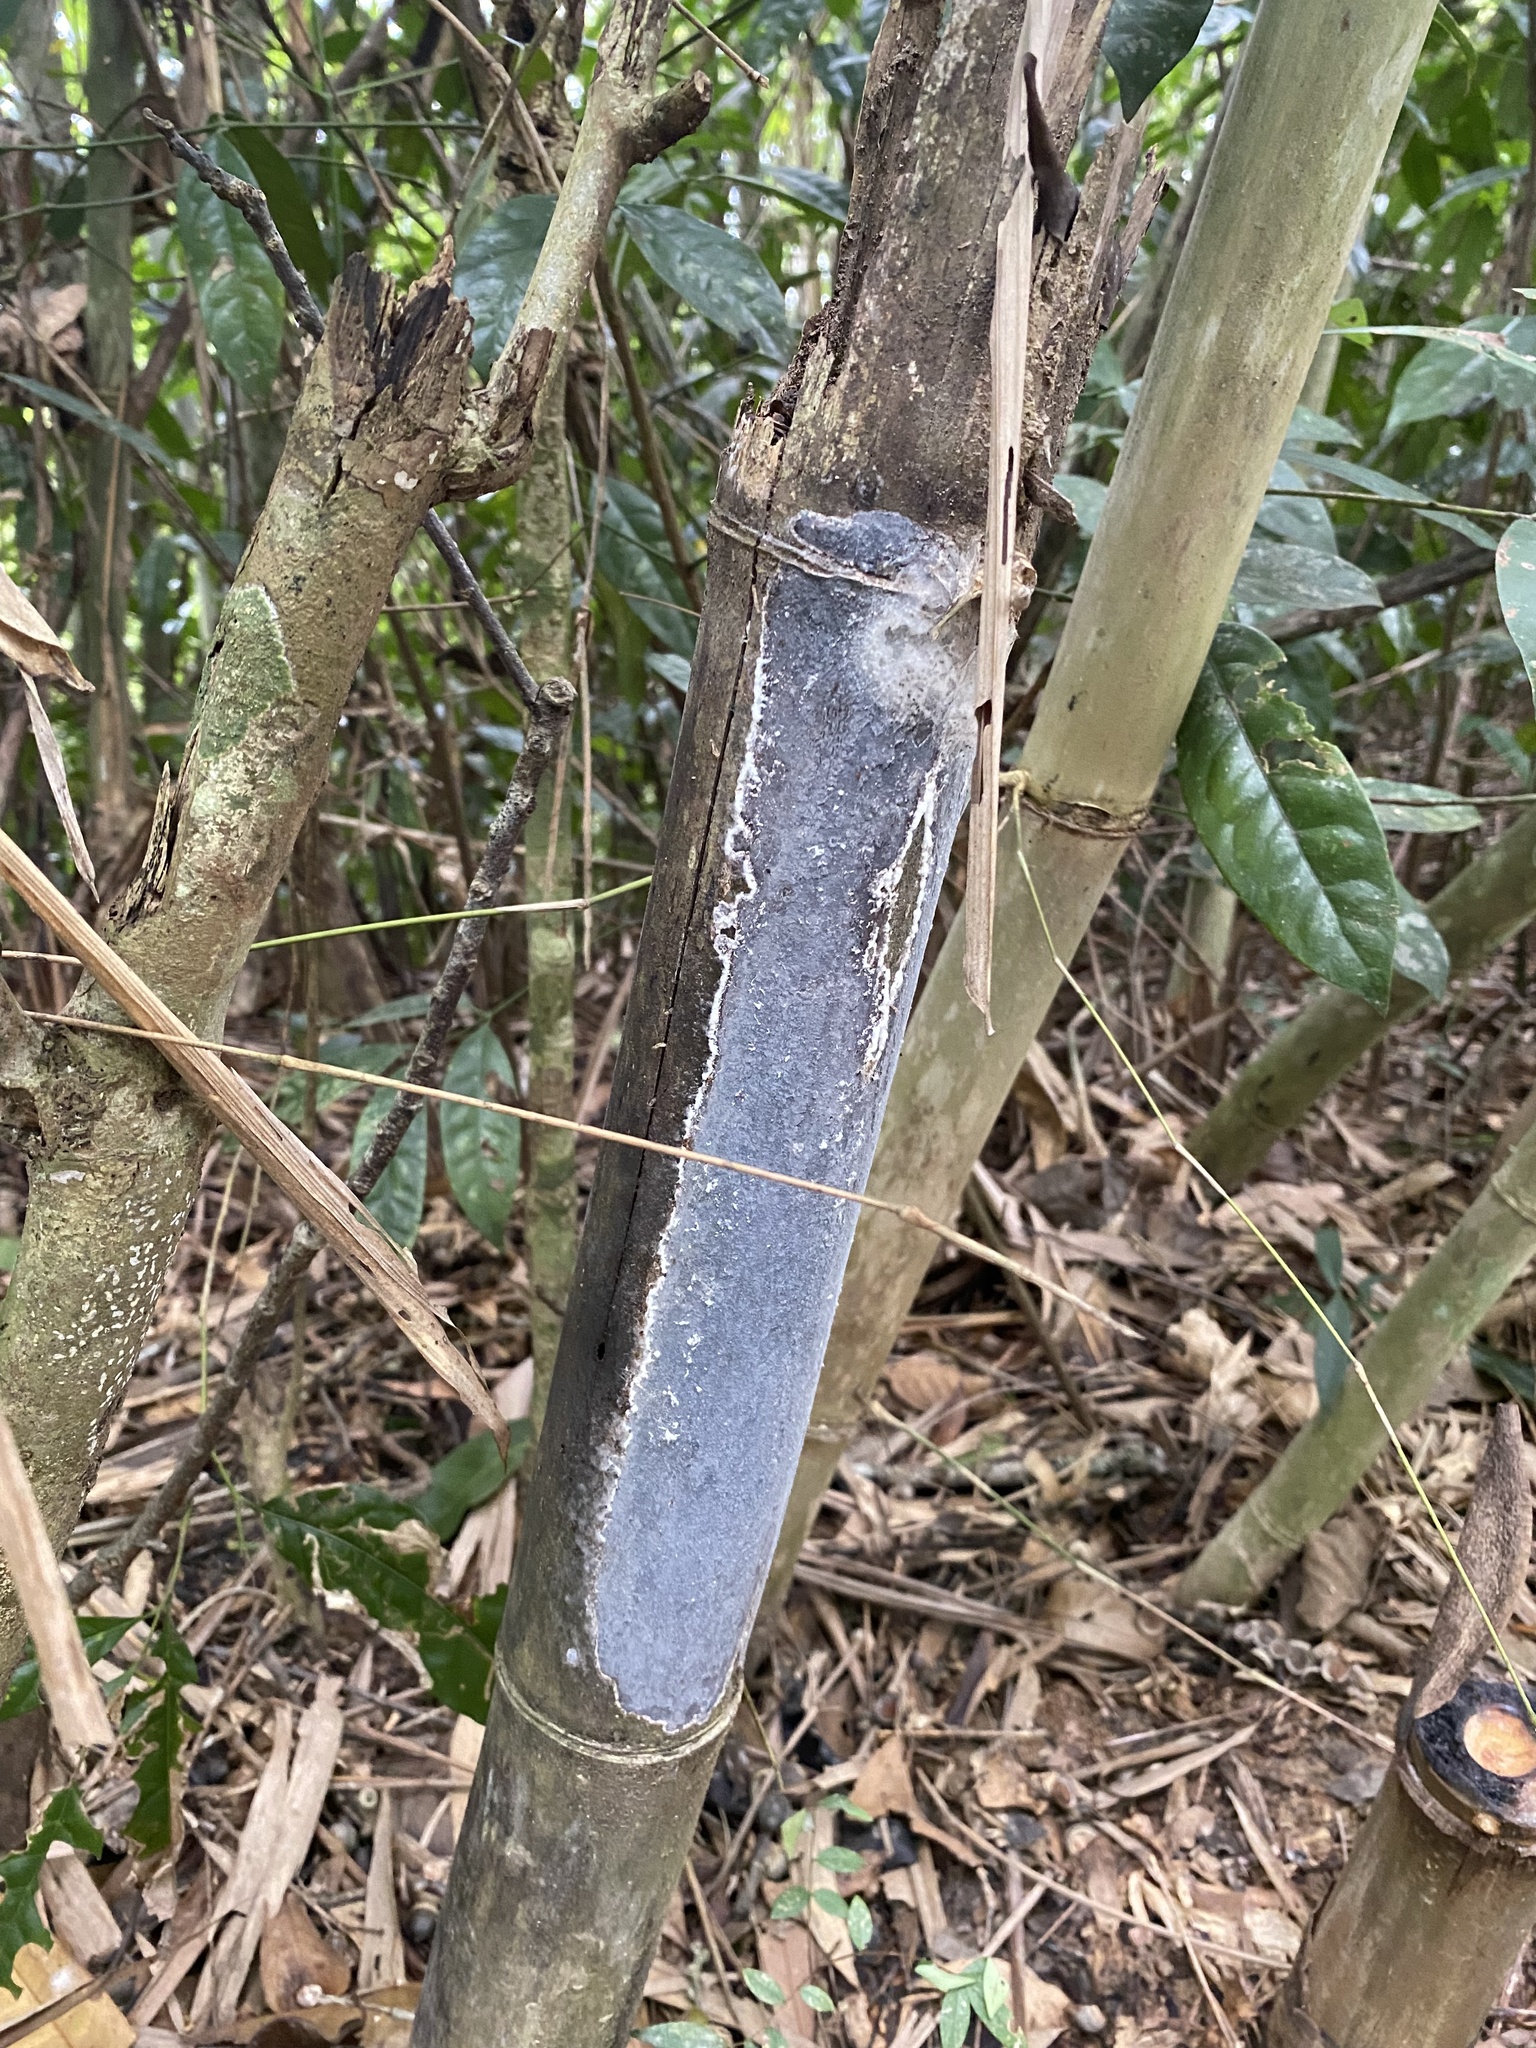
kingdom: Fungi
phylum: Basidiomycota
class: Agaricomycetes
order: Polyporales
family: Polyporaceae
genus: Grammothele
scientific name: Grammothele fuligo
